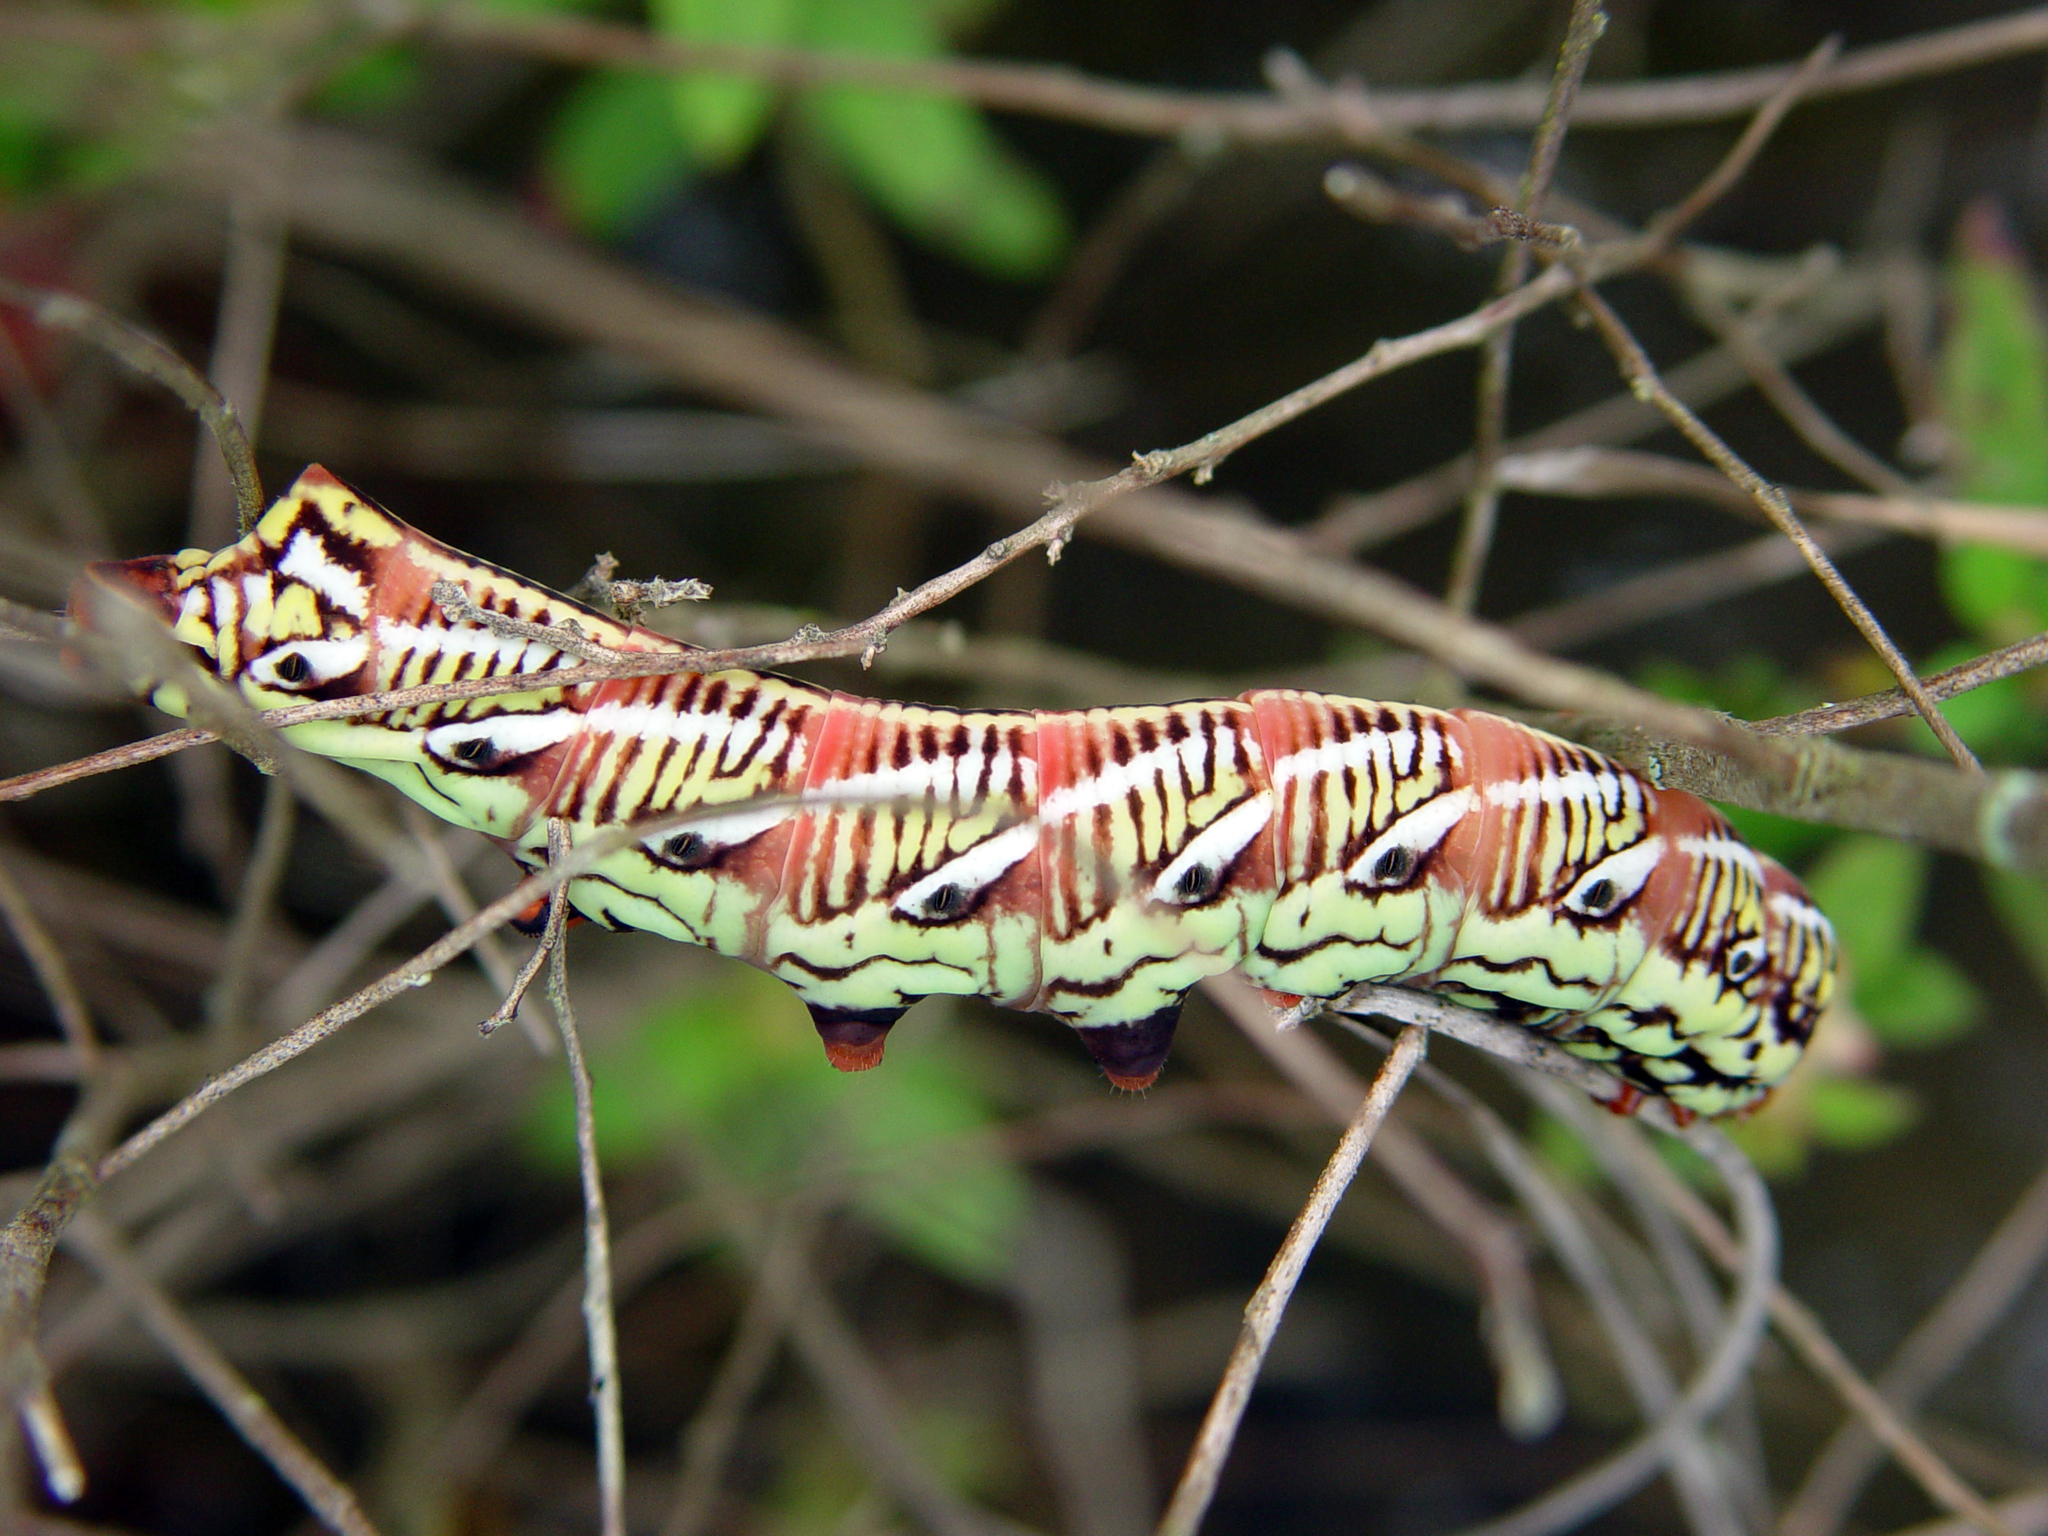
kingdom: Animalia
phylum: Arthropoda
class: Insecta
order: Lepidoptera
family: Sphingidae
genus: Eumorpha
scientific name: Eumorpha fasciatus
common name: Banded sphinx
